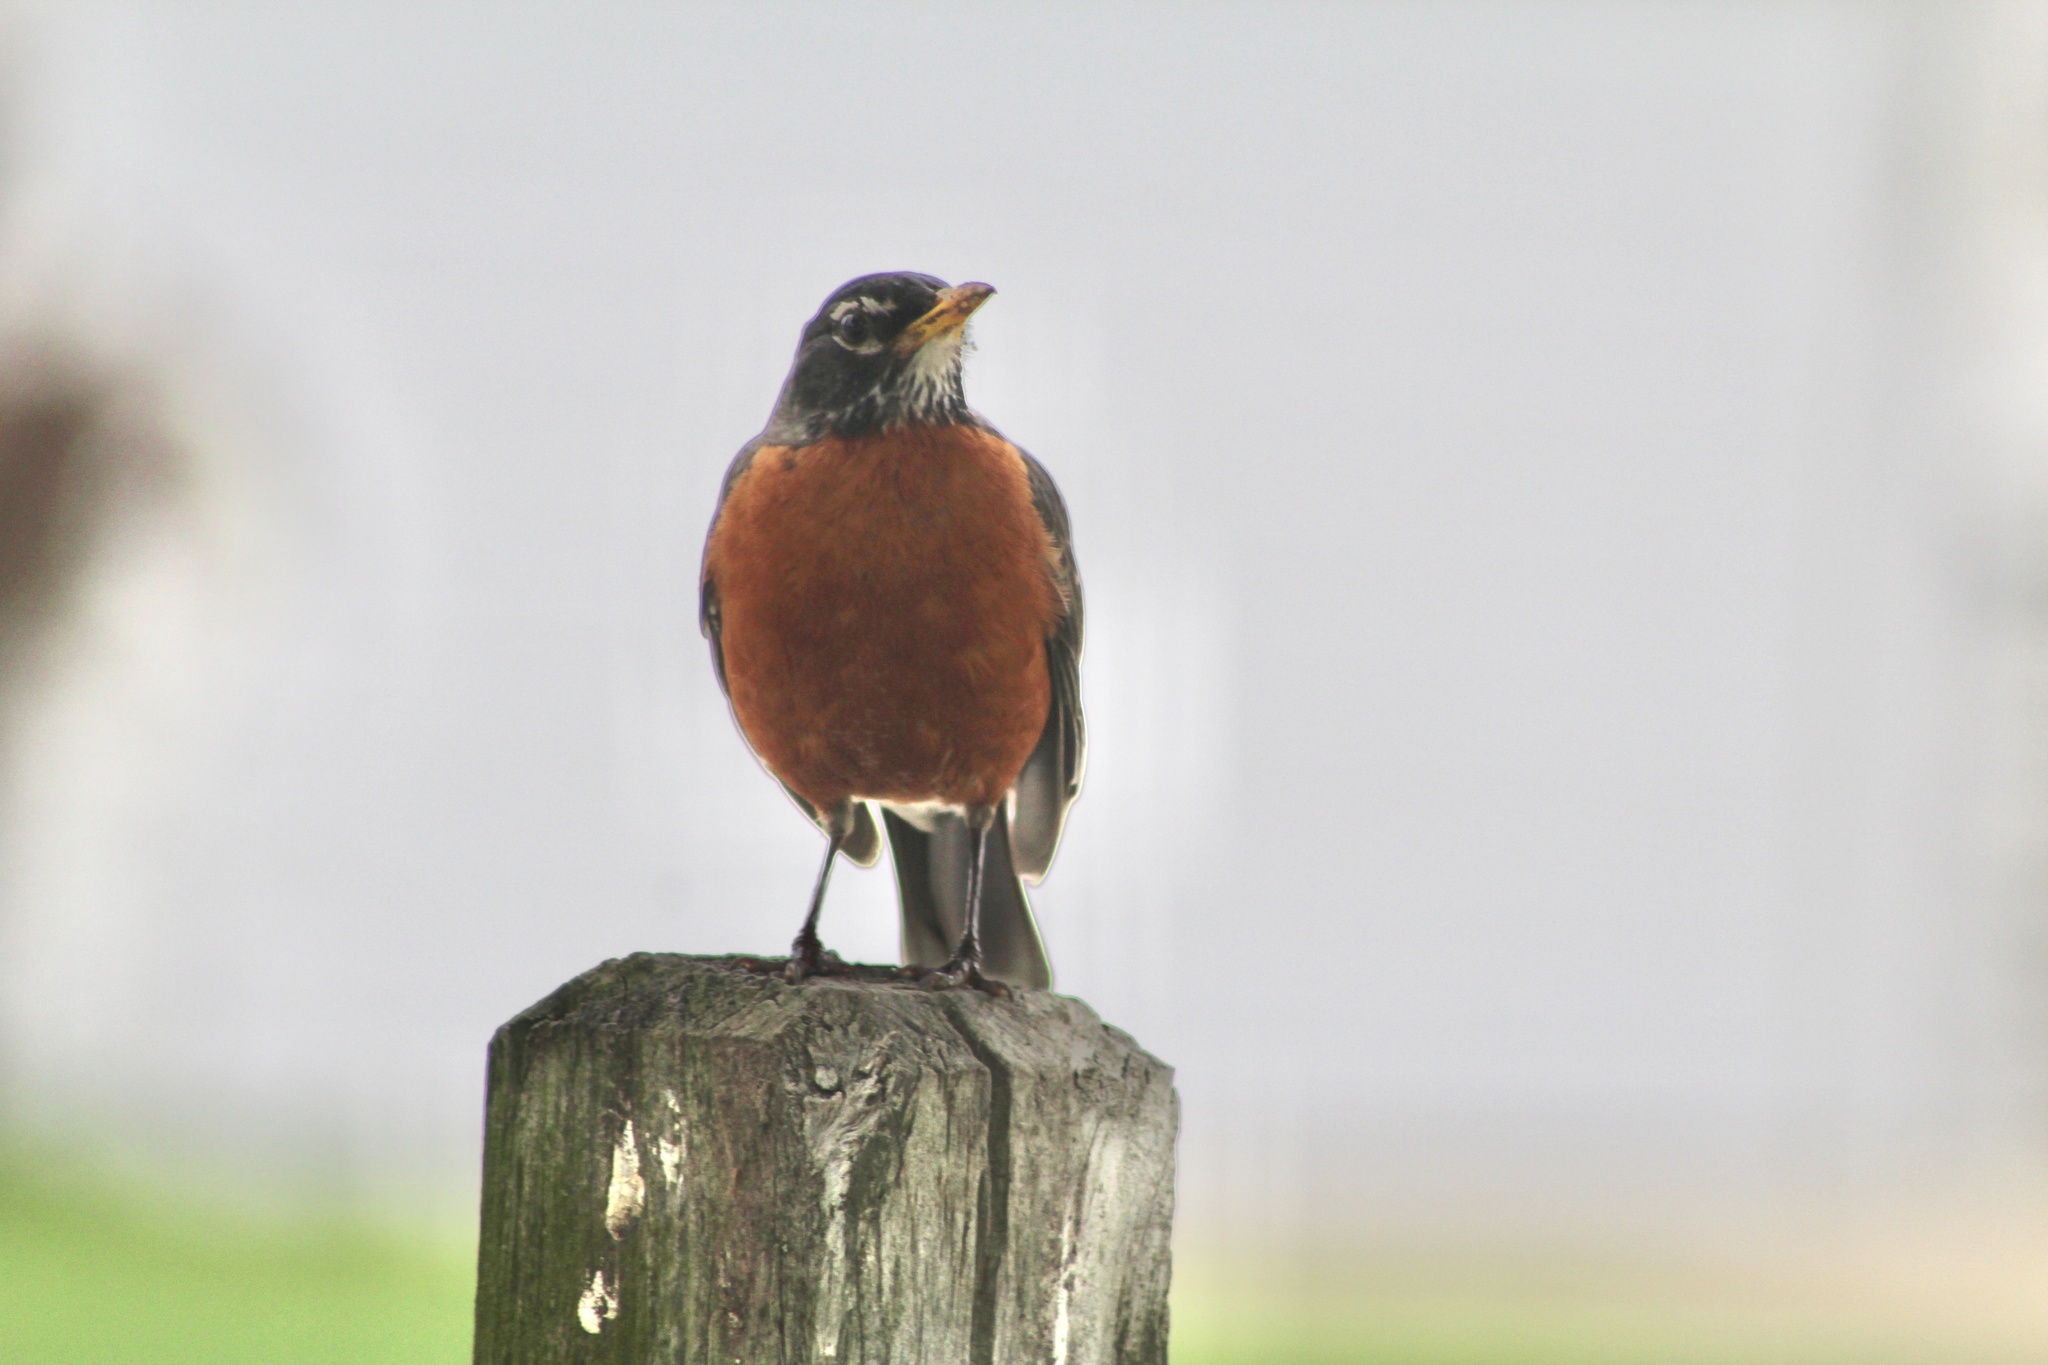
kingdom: Animalia
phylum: Chordata
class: Aves
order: Passeriformes
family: Turdidae
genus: Turdus
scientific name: Turdus migratorius
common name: American robin
